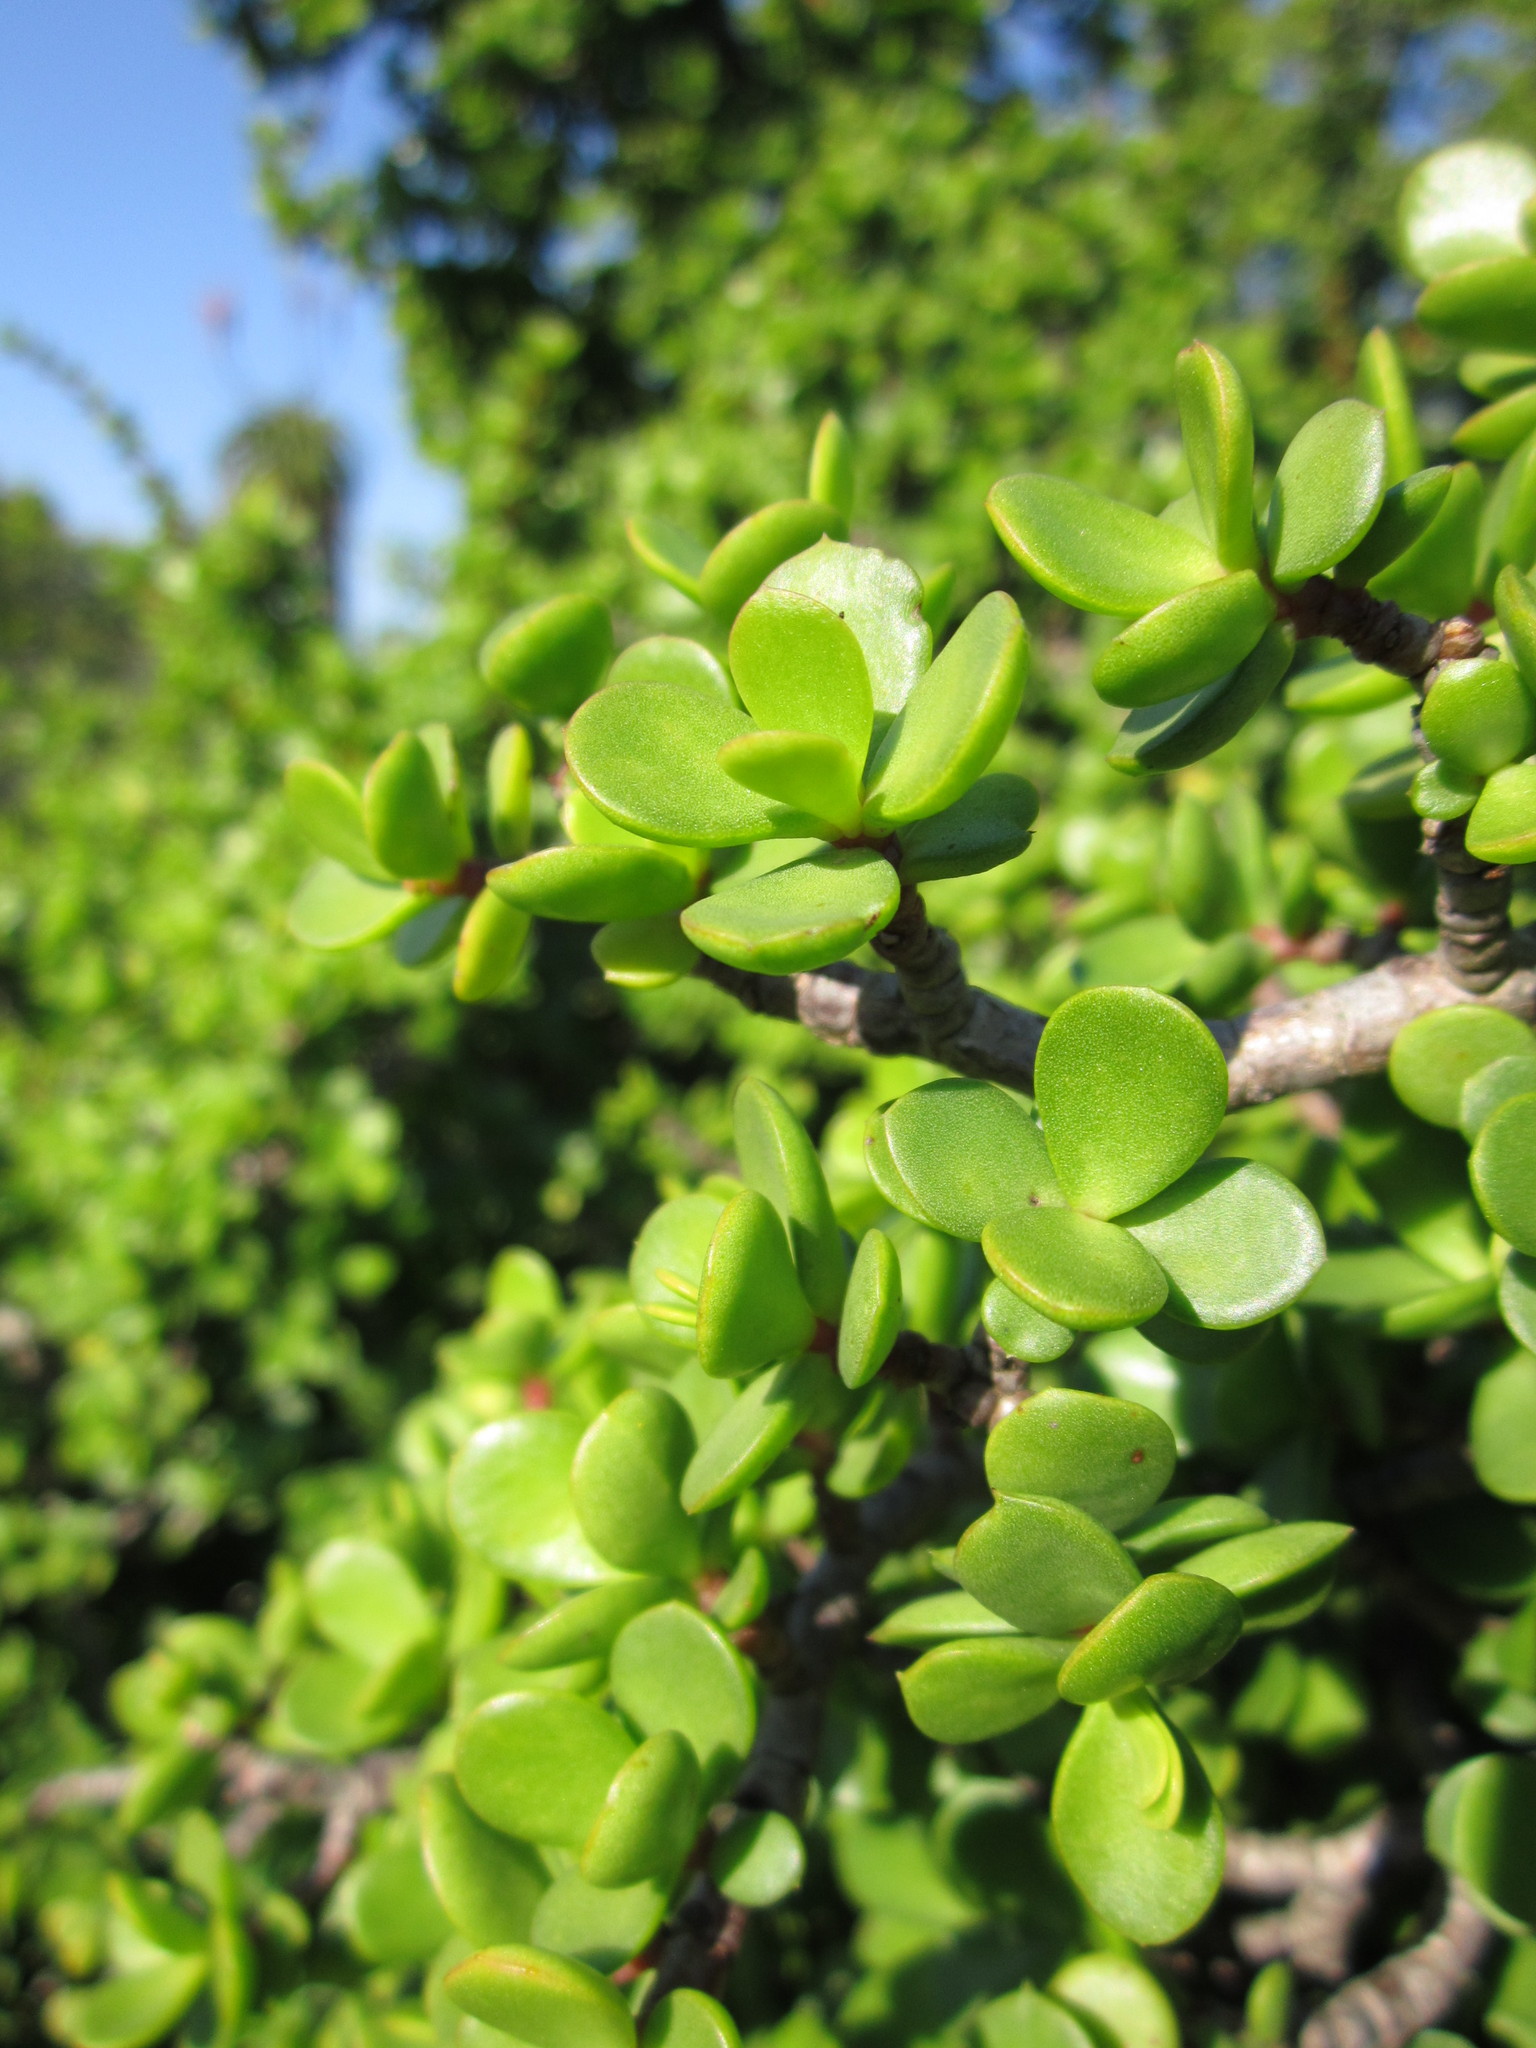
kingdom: Plantae
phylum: Tracheophyta
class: Magnoliopsida
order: Caryophyllales
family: Didiereaceae
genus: Portulacaria
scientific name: Portulacaria afra
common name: Elephant-bush
